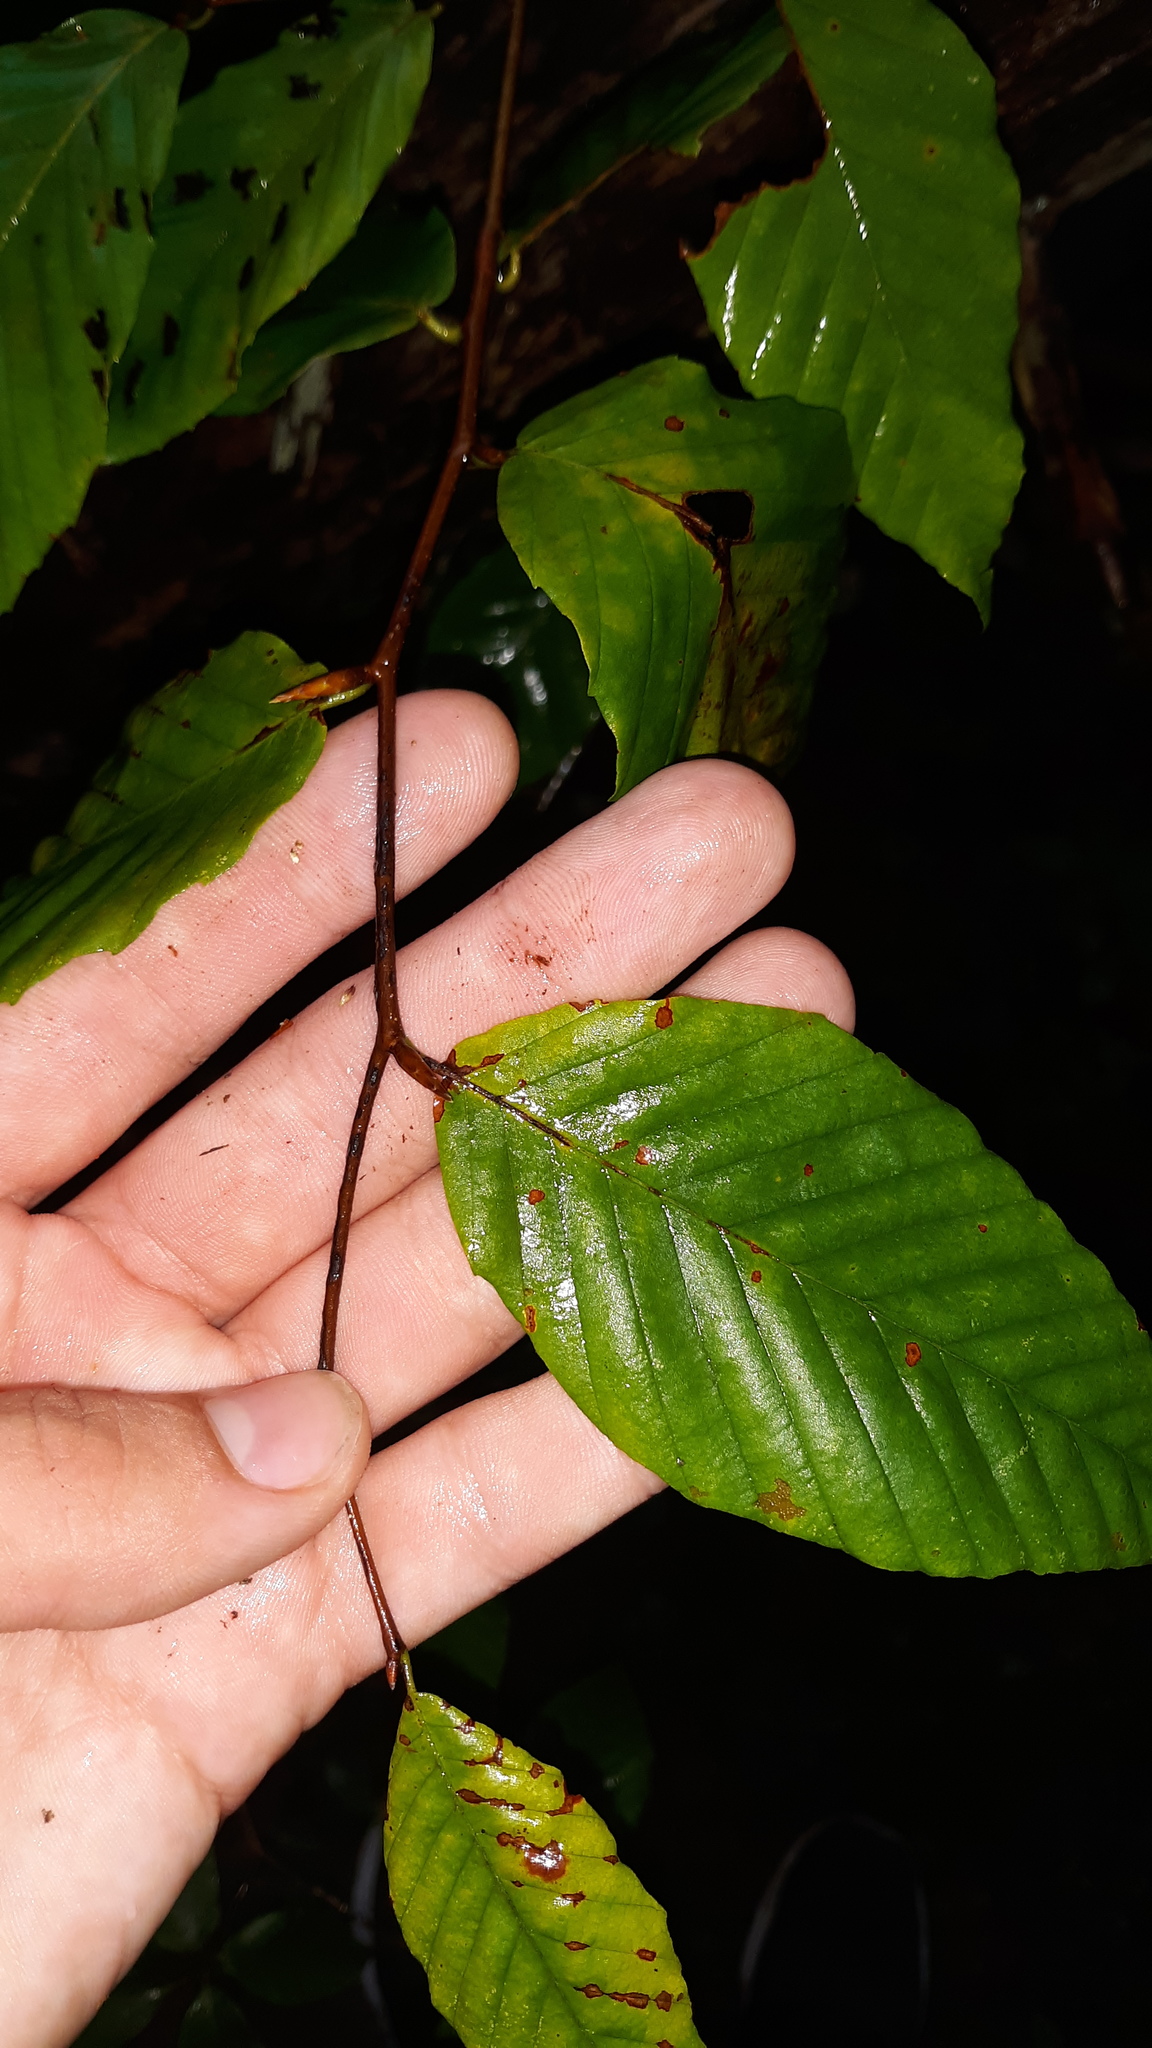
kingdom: Plantae
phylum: Tracheophyta
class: Magnoliopsida
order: Fagales
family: Fagaceae
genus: Fagus
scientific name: Fagus grandifolia
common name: American beech
